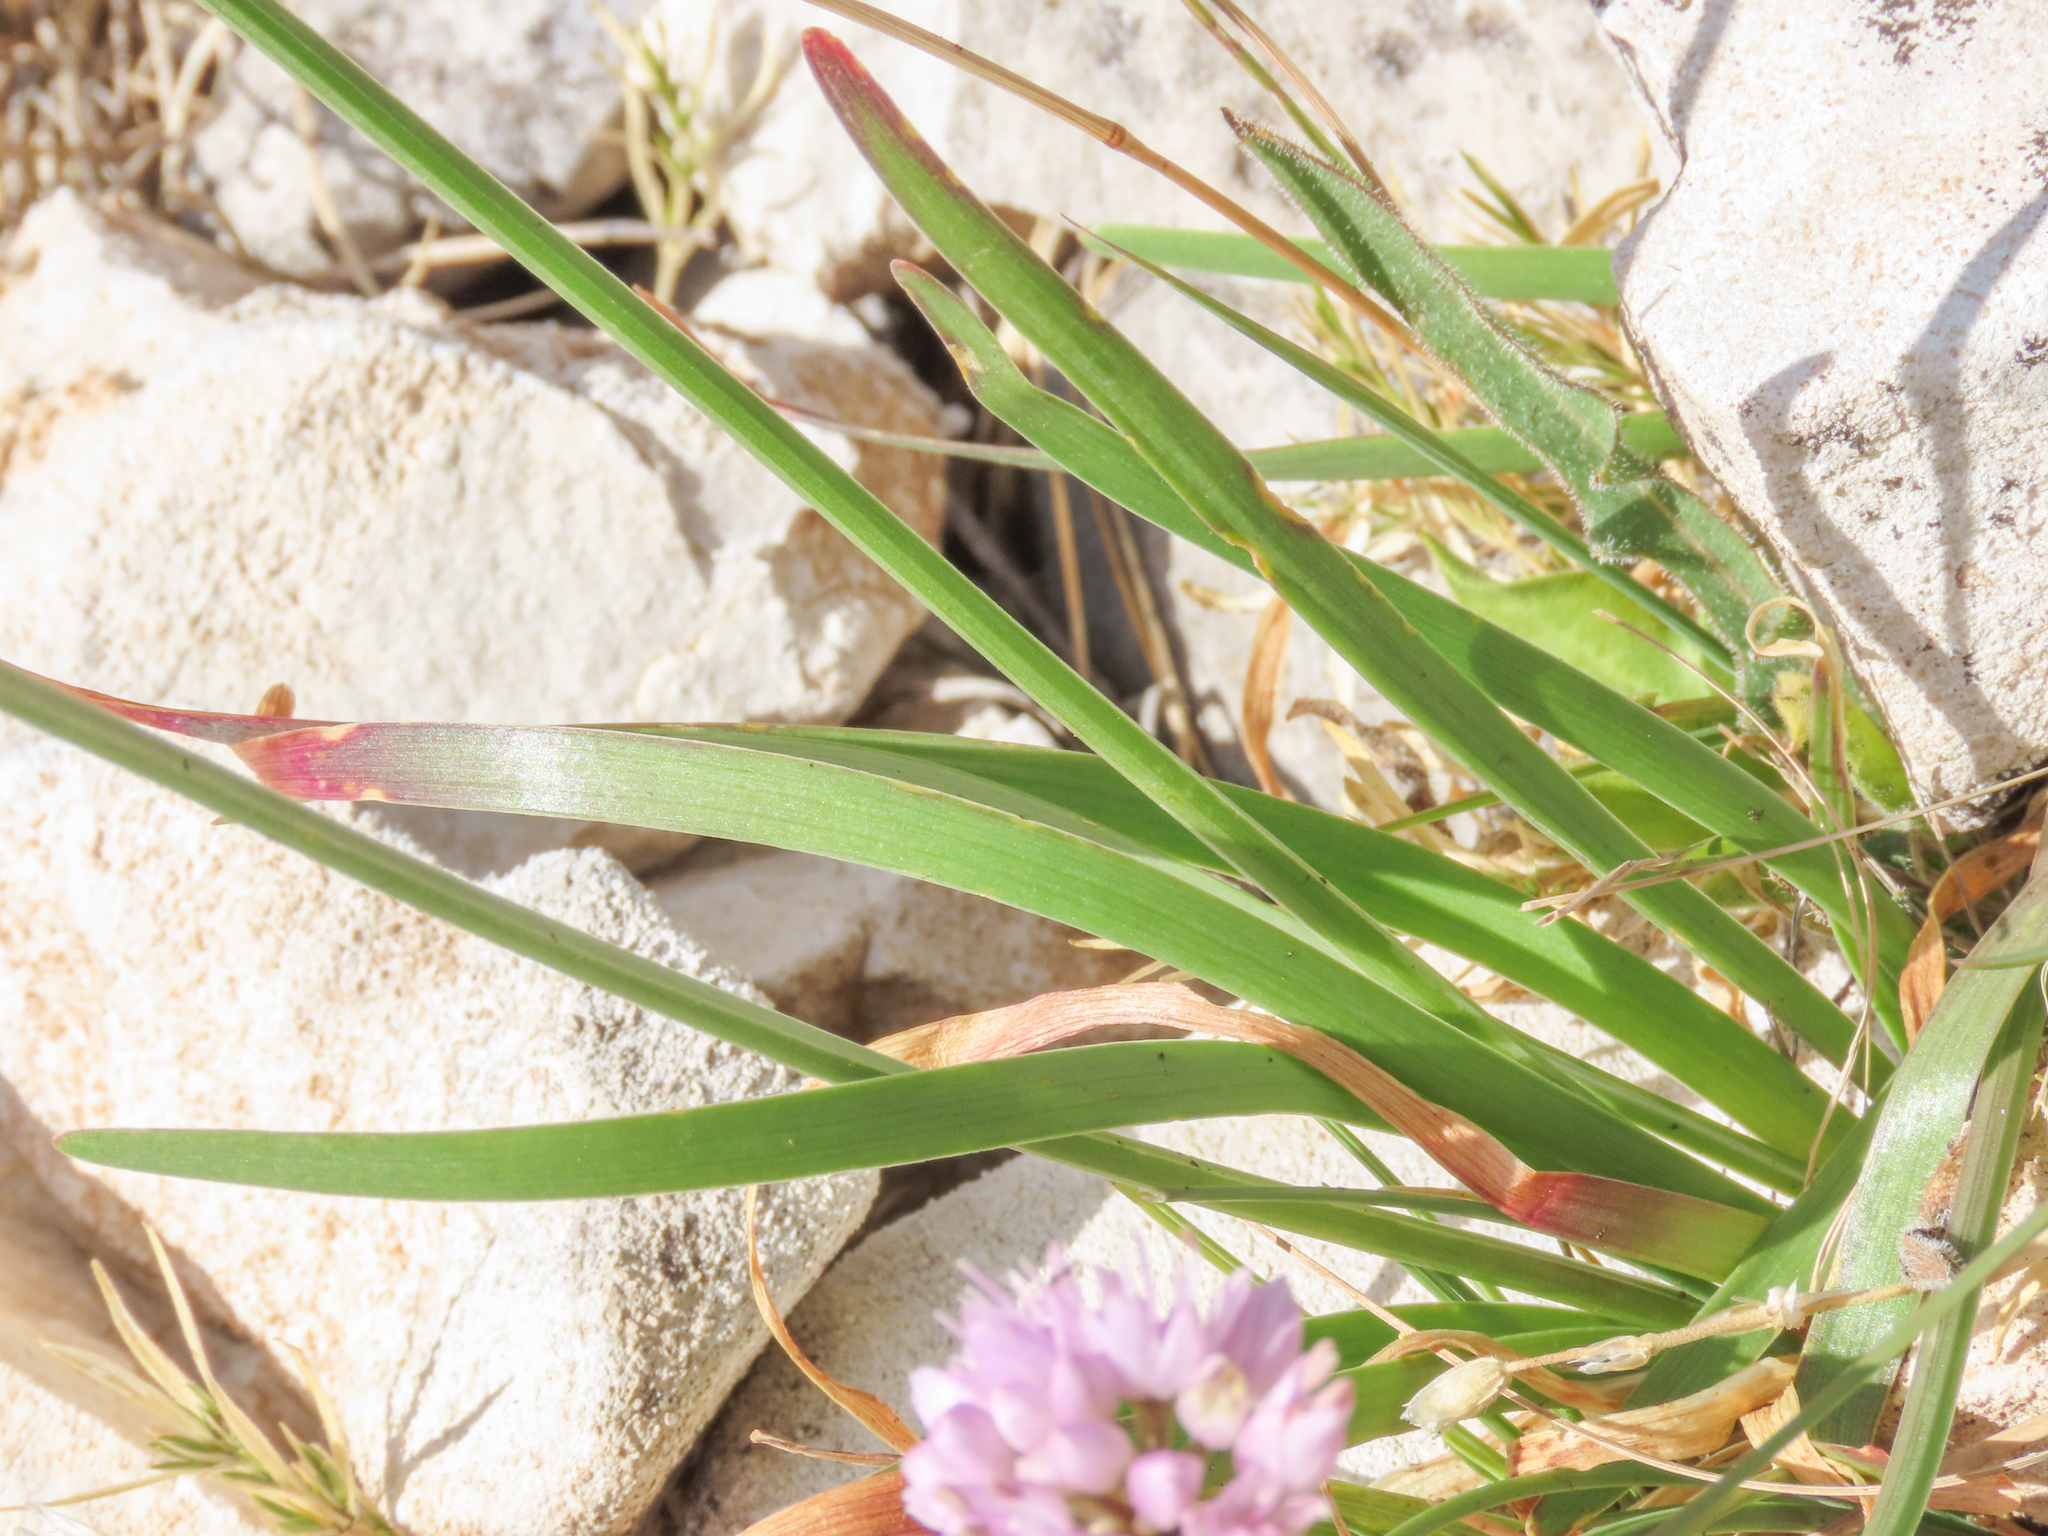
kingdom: Plantae
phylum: Tracheophyta
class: Liliopsida
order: Asparagales
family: Amaryllidaceae
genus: Allium
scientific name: Allium lusitanicum
